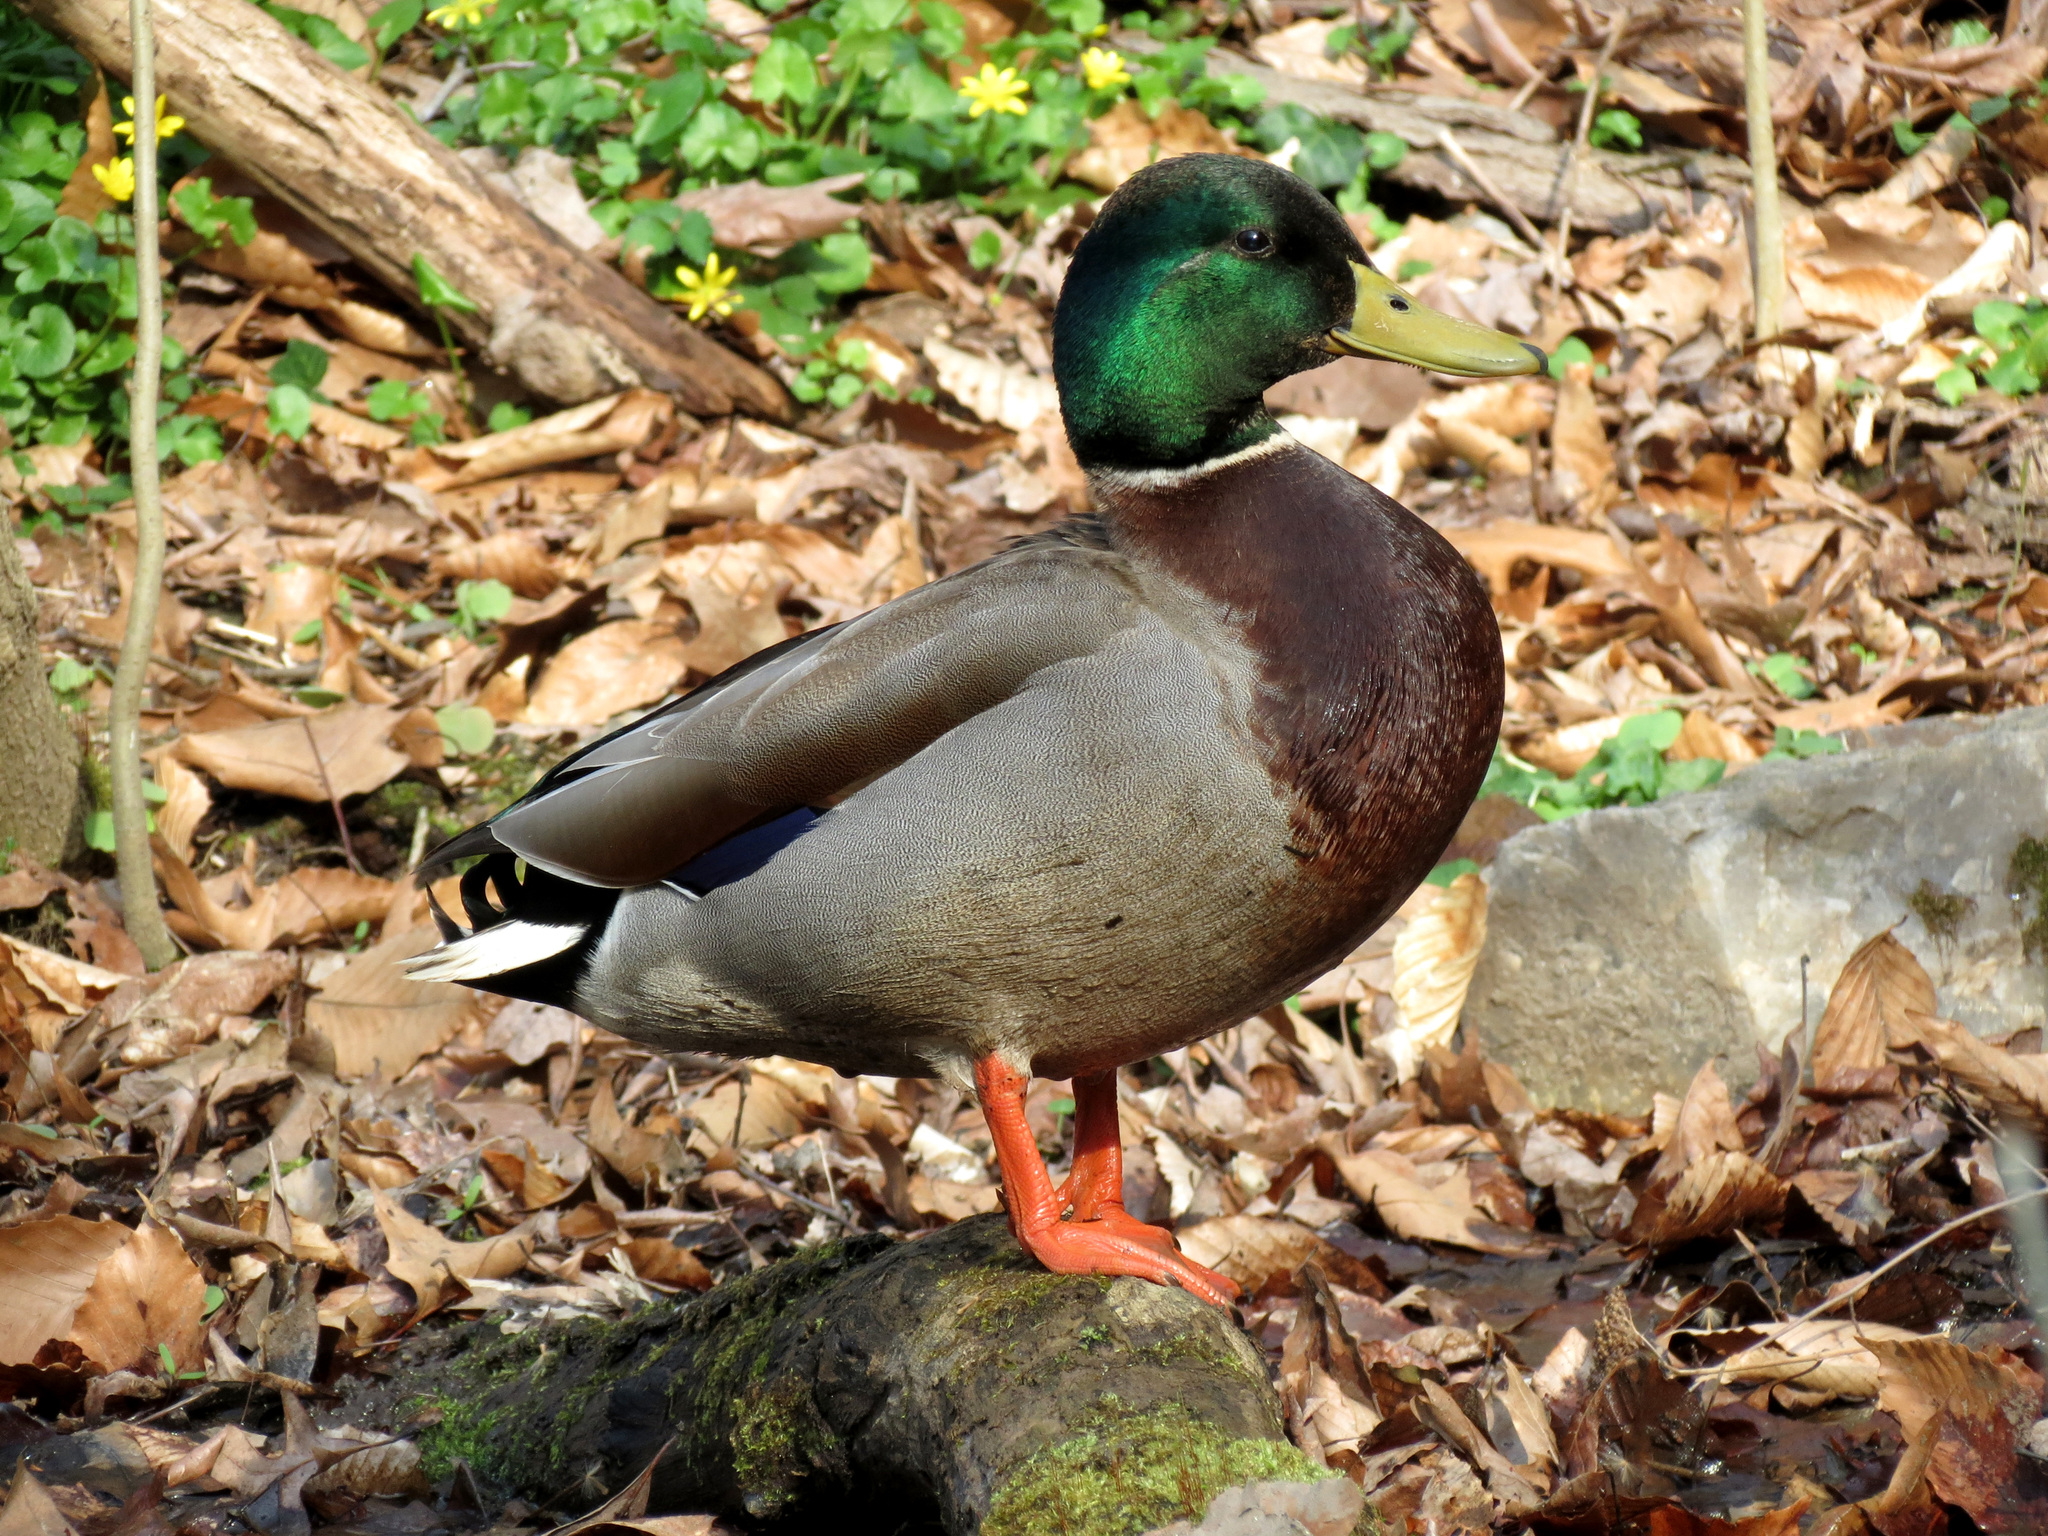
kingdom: Animalia
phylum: Chordata
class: Aves
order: Anseriformes
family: Anatidae
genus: Anas
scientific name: Anas platyrhynchos
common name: Mallard
